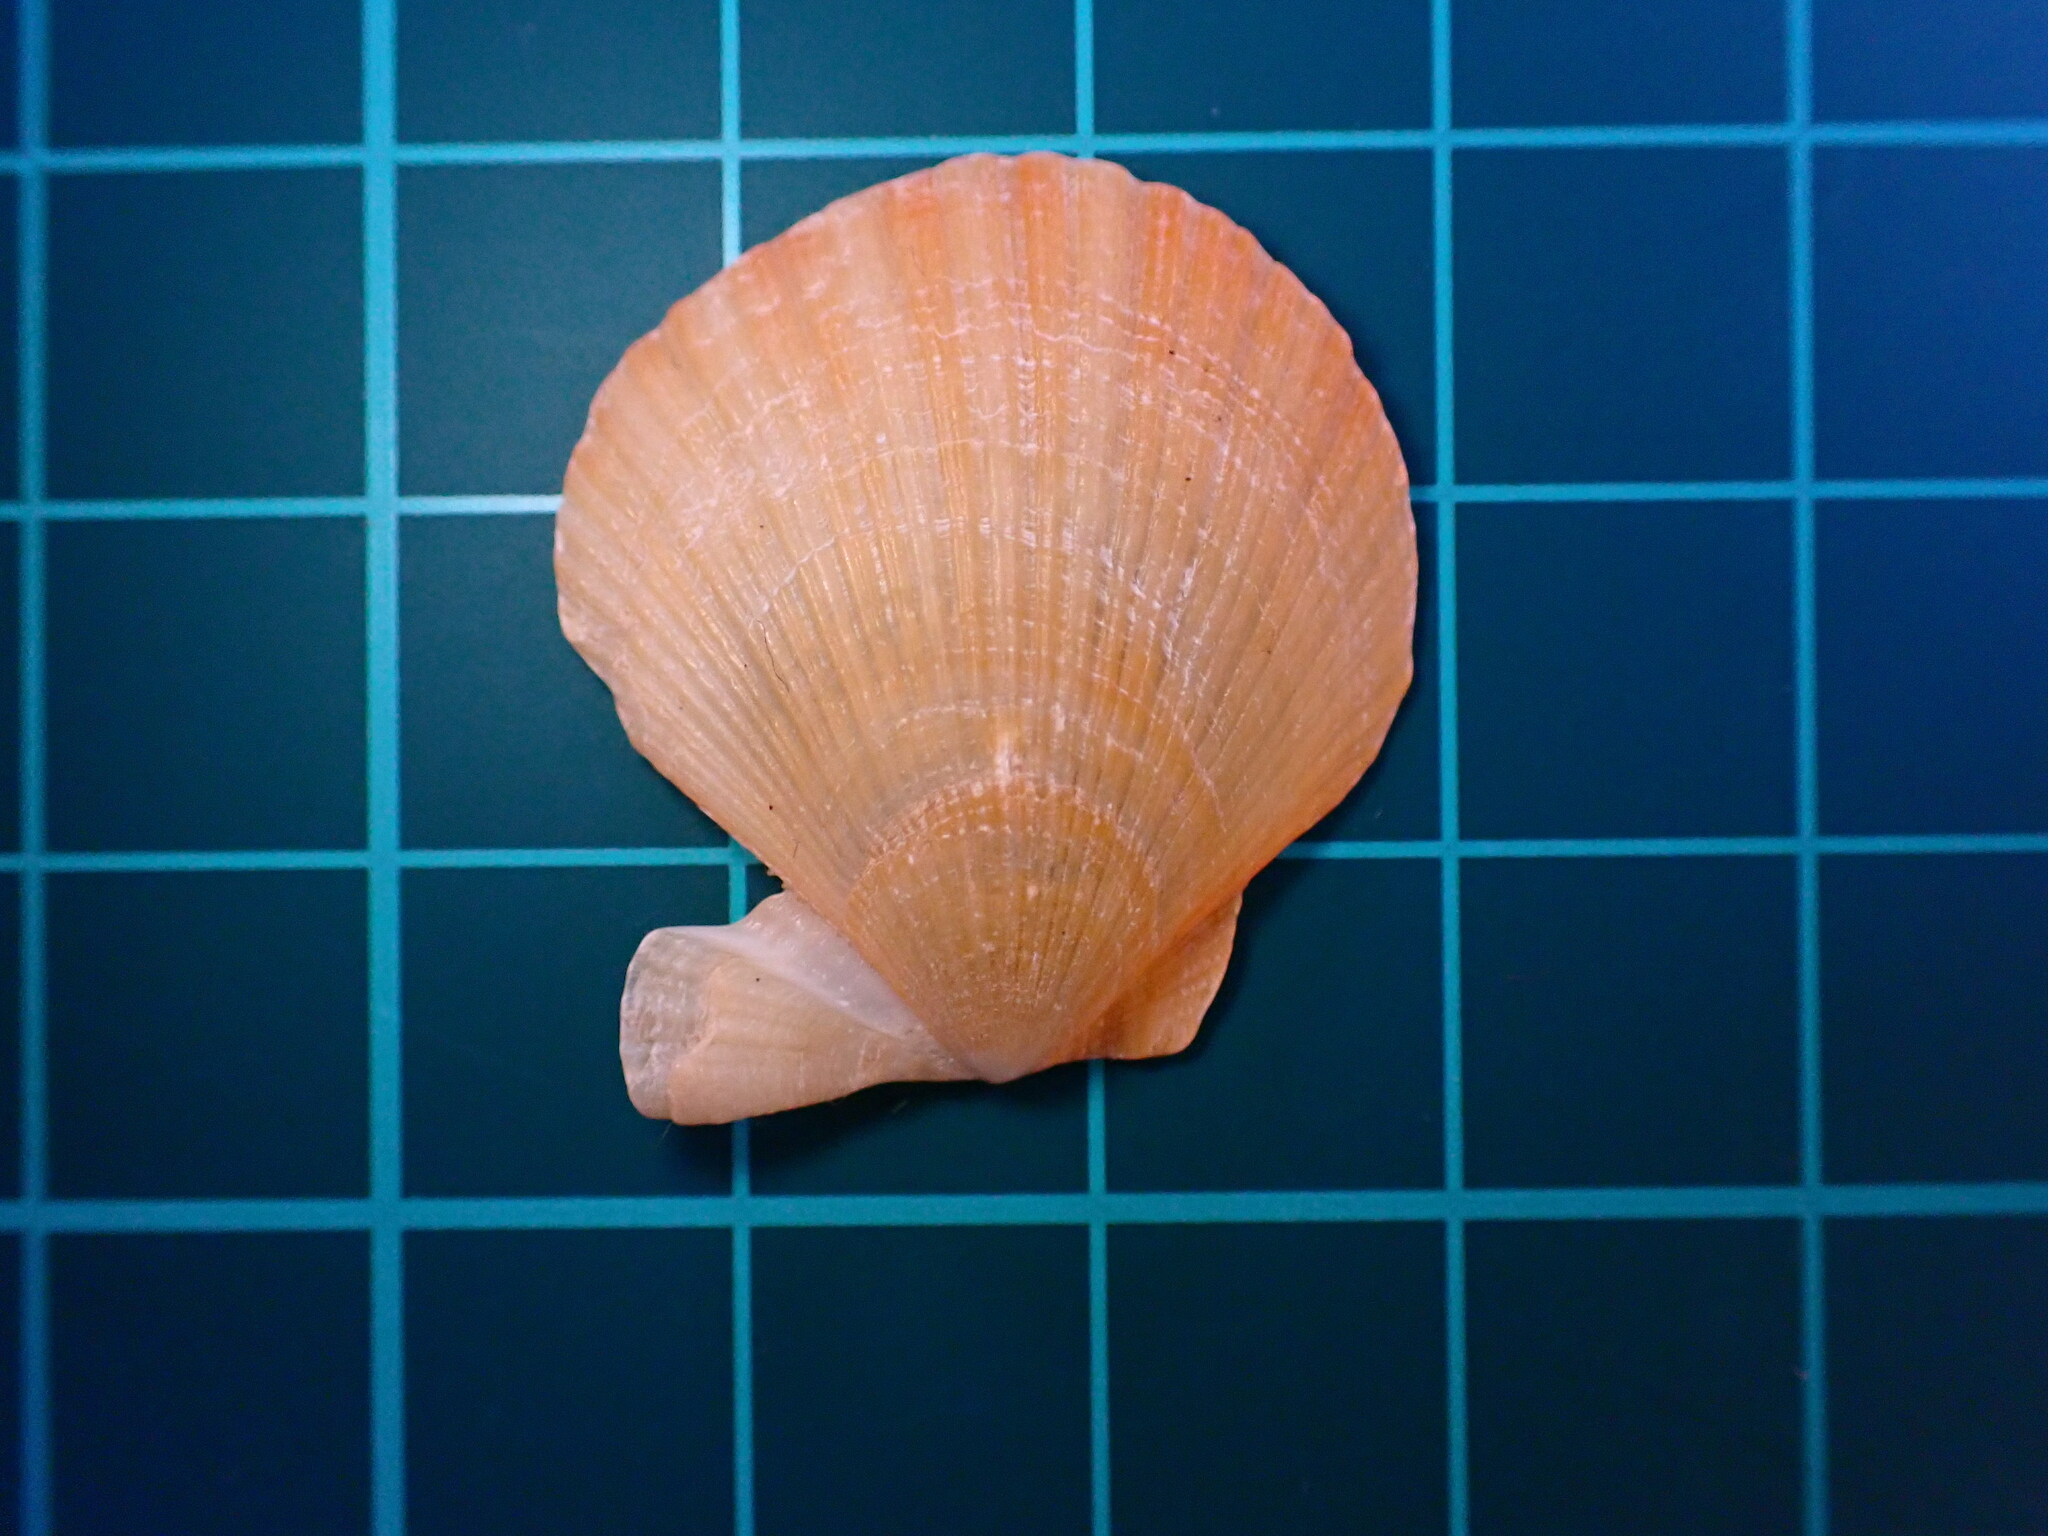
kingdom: Animalia
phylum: Mollusca
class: Bivalvia
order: Pectinida
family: Pectinidae
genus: Crassadoma
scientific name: Crassadoma gigantea
